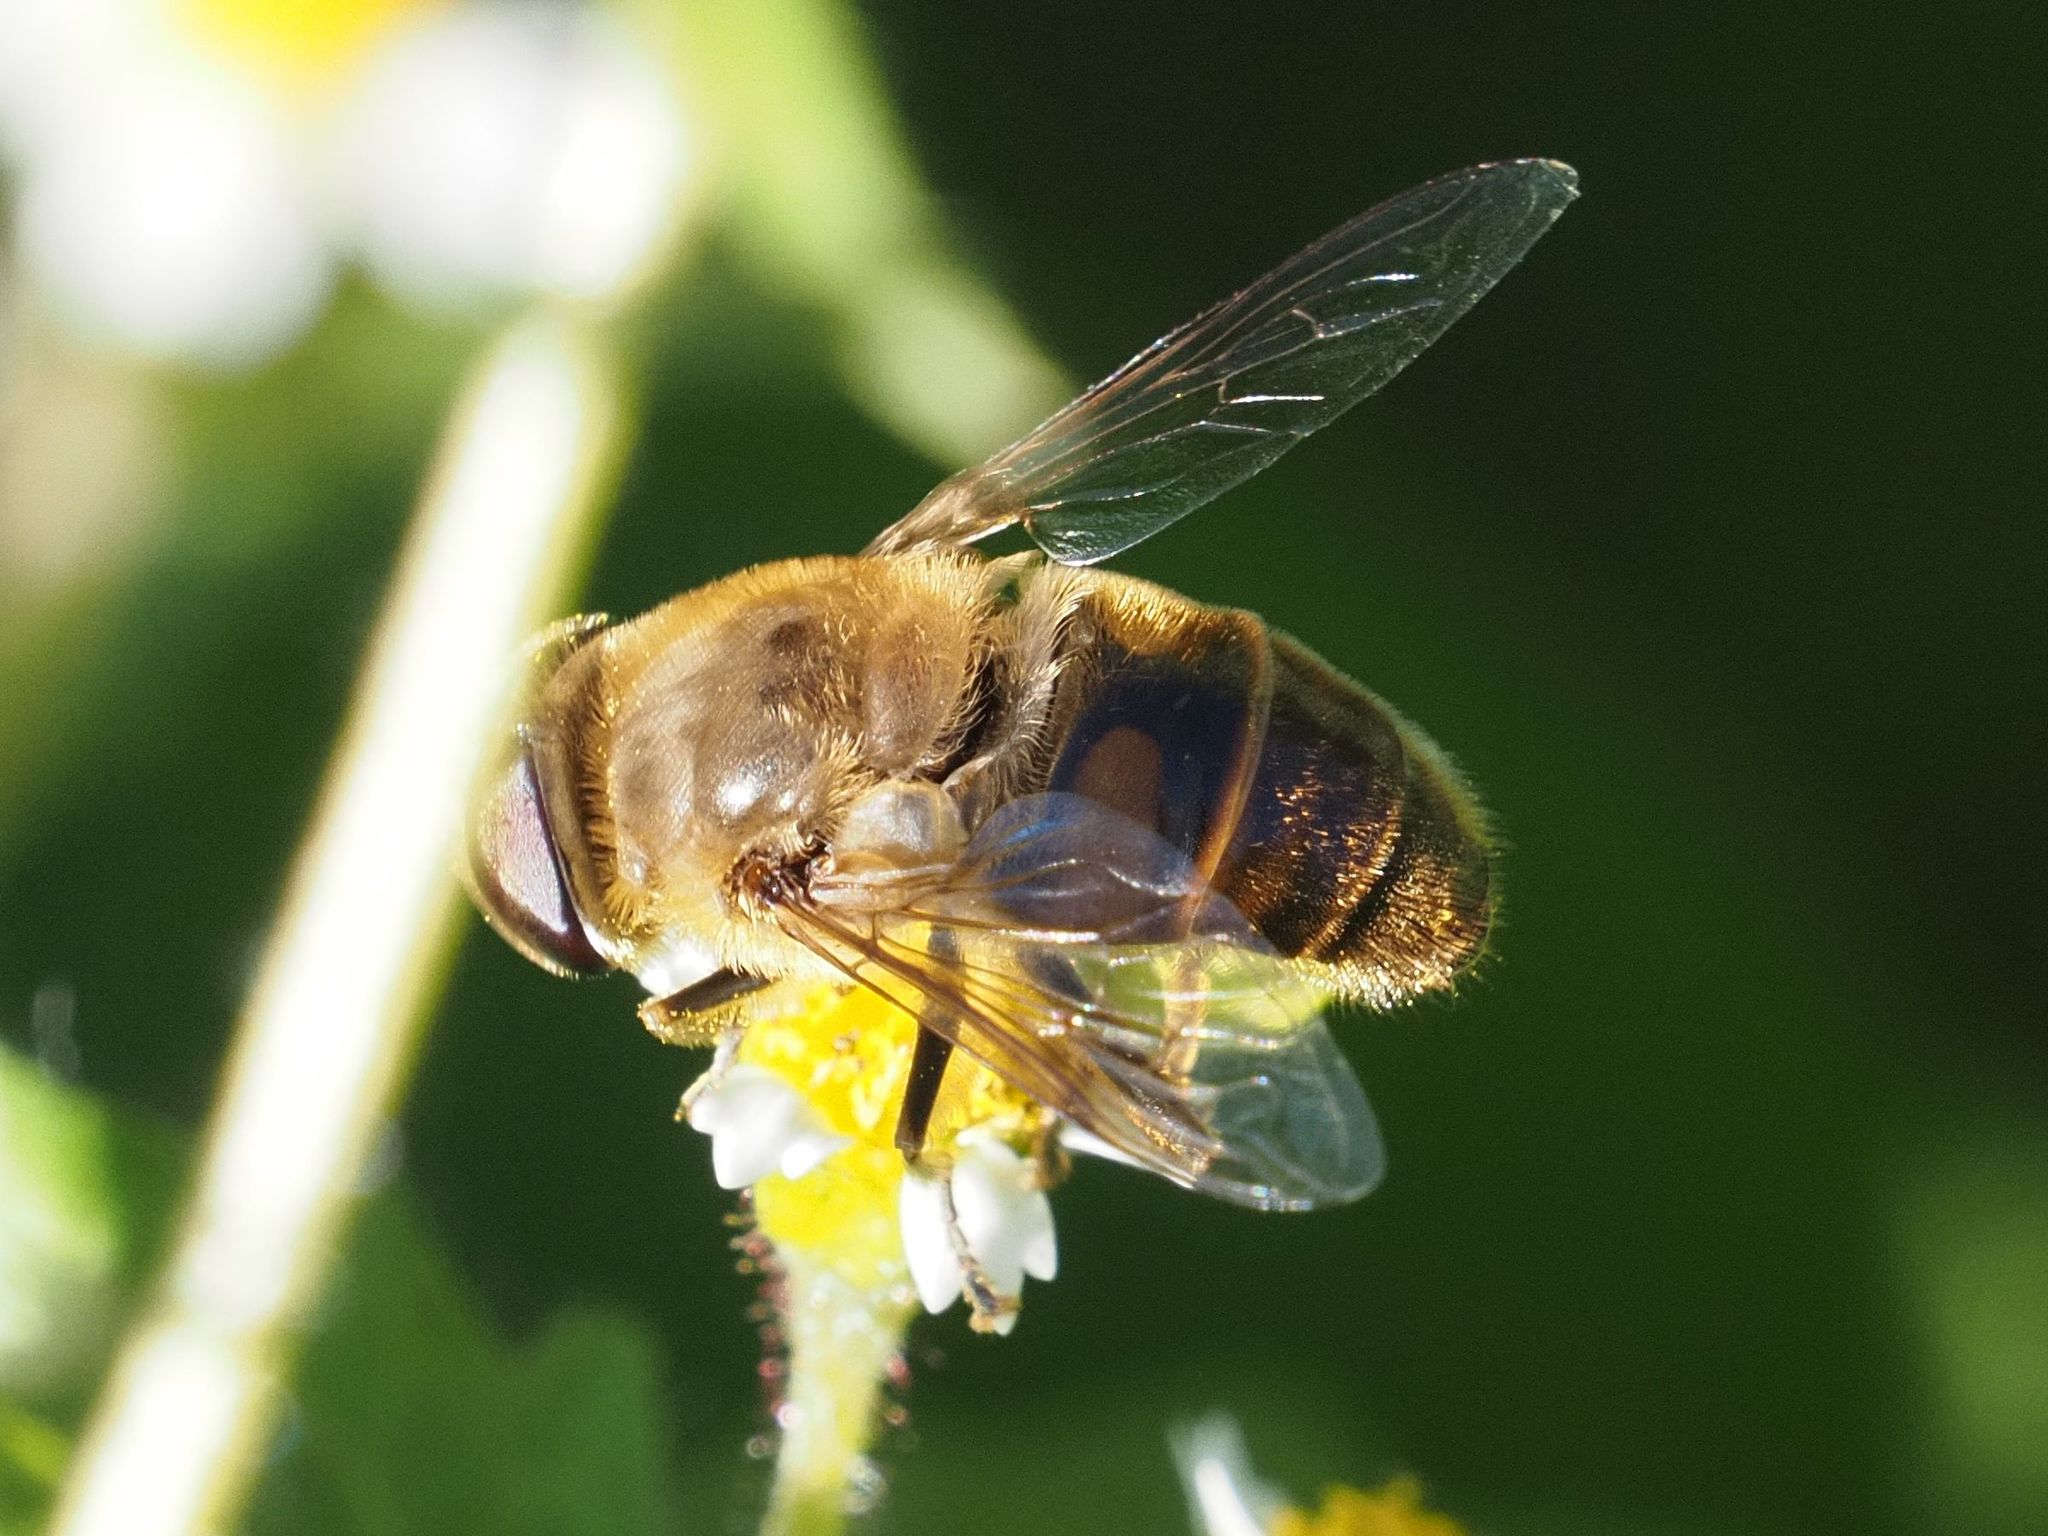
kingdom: Animalia
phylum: Arthropoda
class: Insecta
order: Diptera
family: Syrphidae
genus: Eristalis
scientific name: Eristalis tenax
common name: Drone fly
